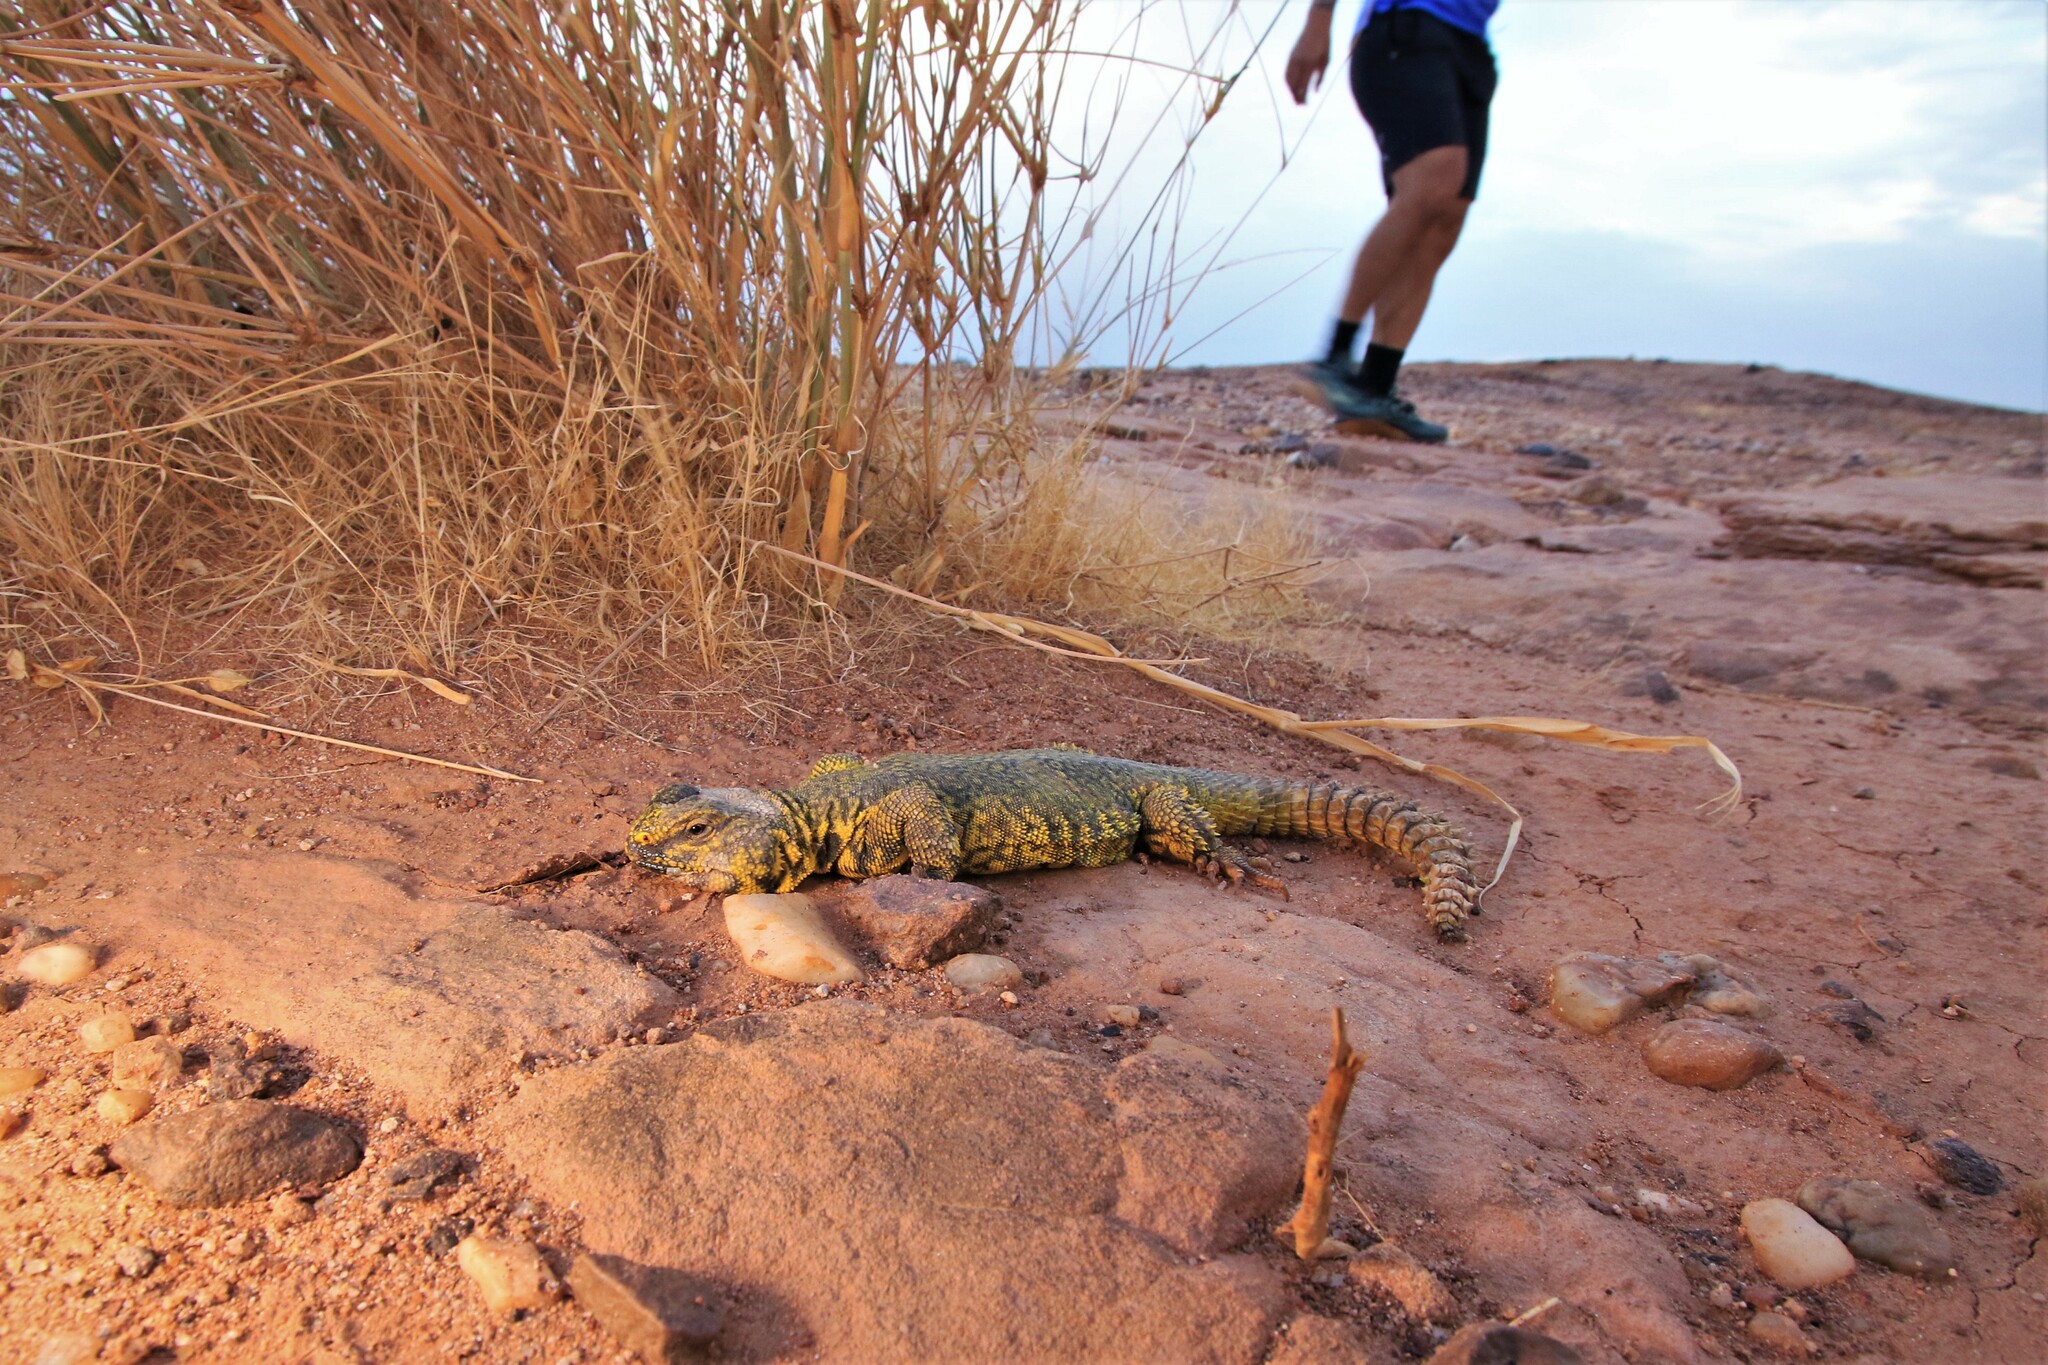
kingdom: Animalia
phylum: Chordata
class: Squamata
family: Agamidae
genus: Uromastyx
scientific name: Uromastyx geyri
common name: Sahara mastigure
